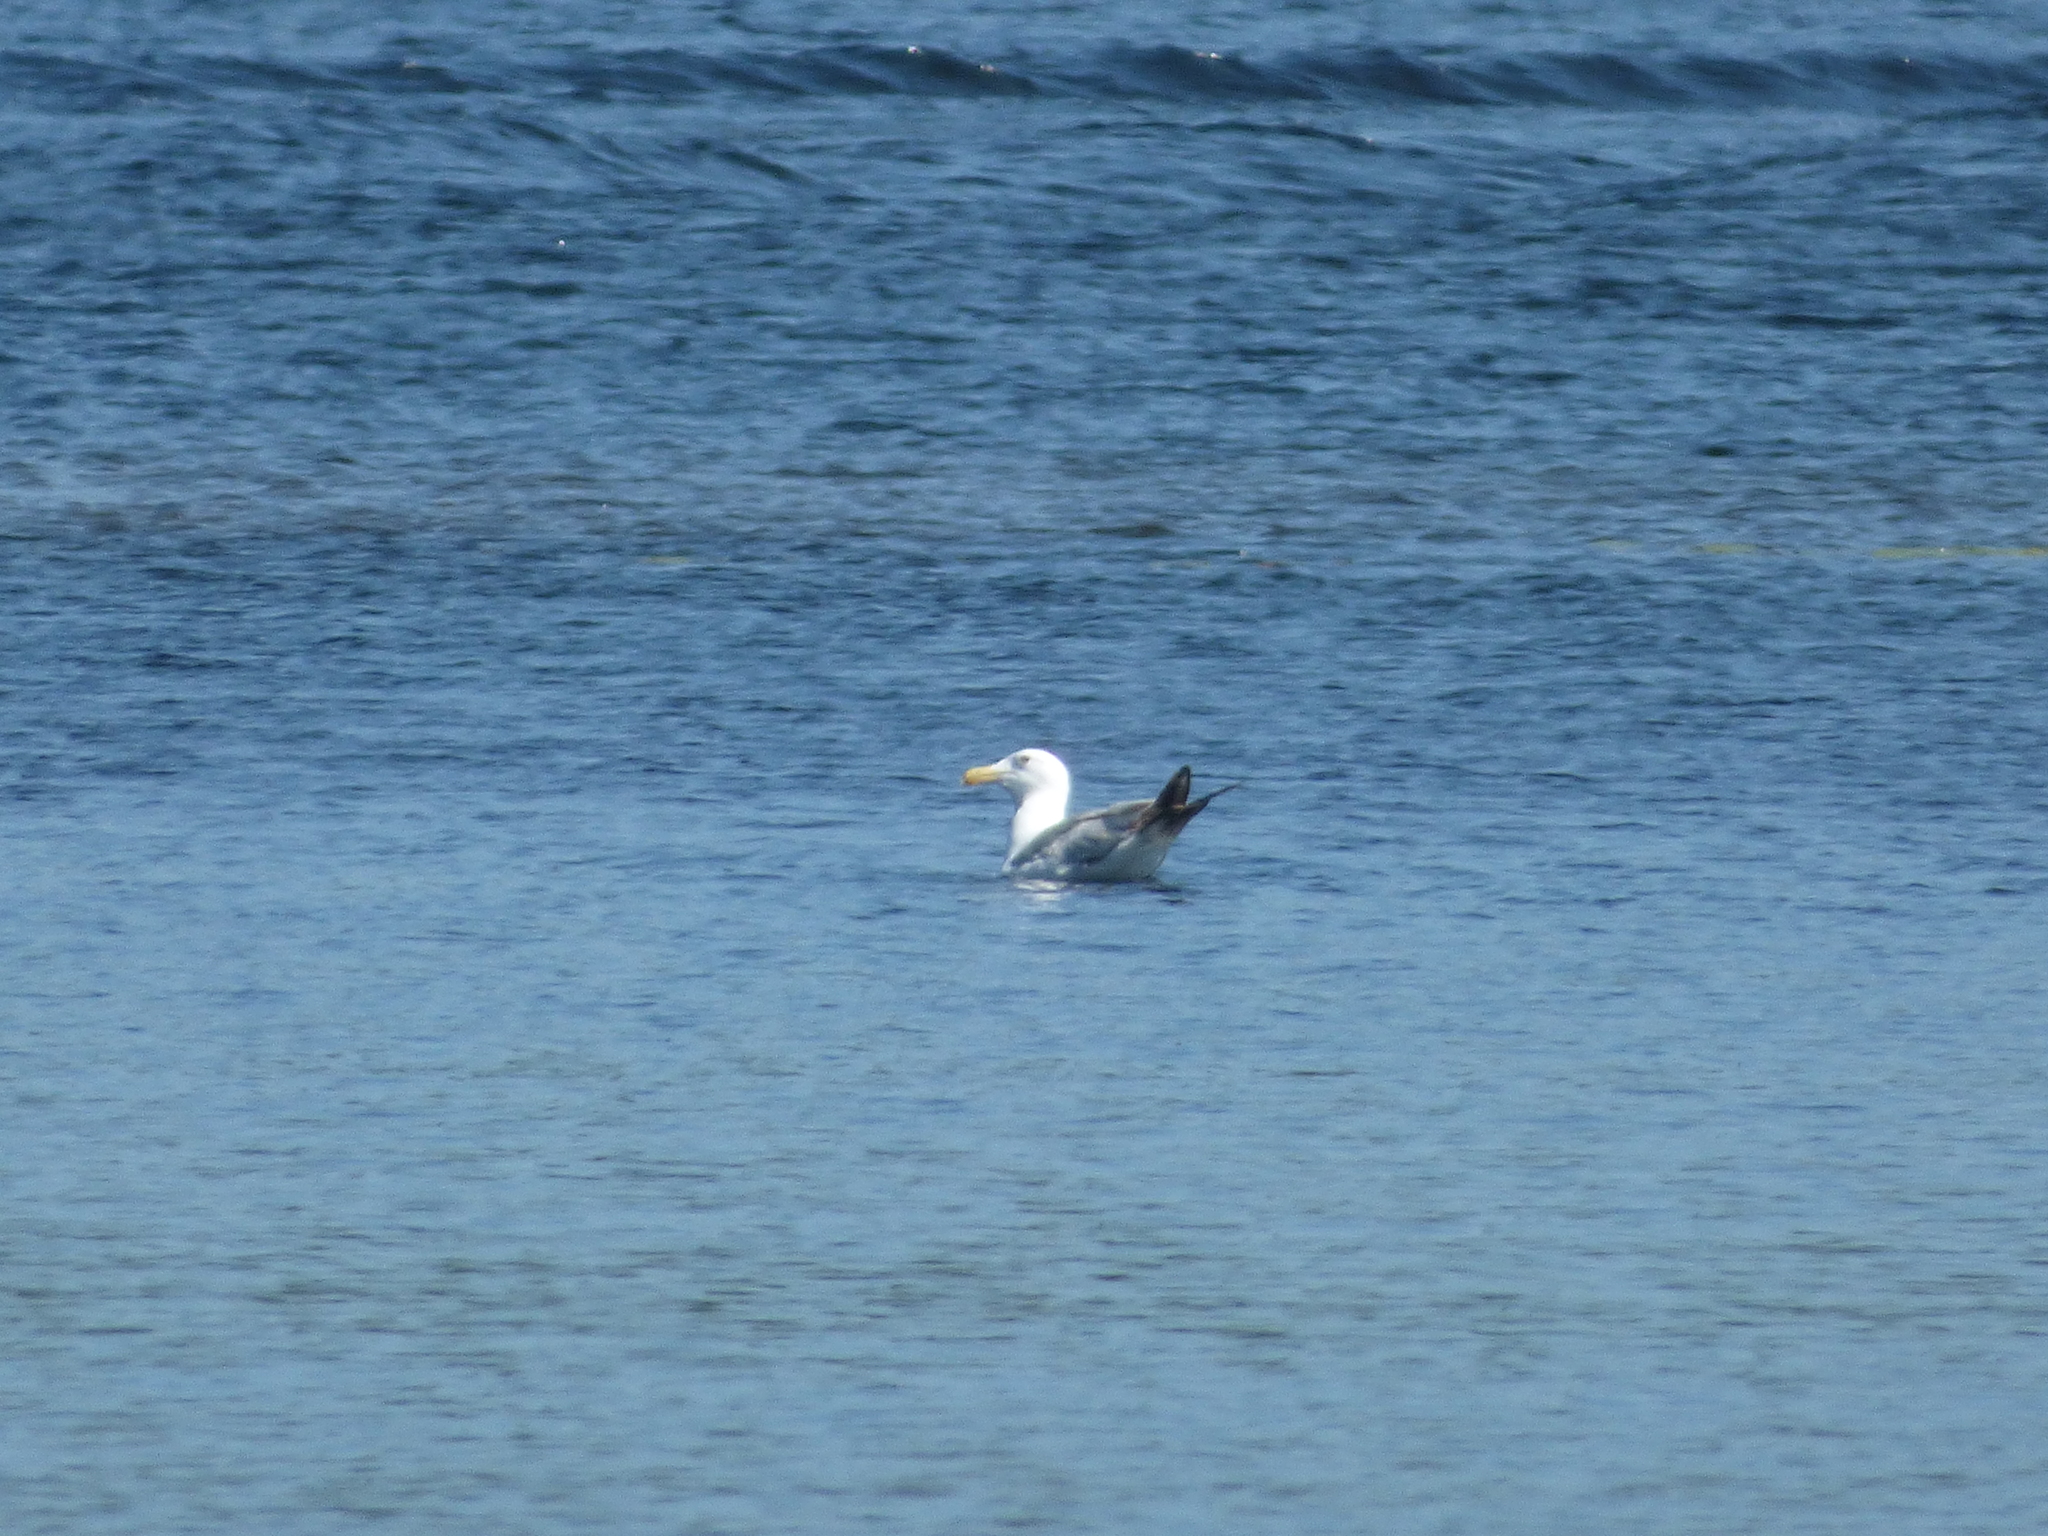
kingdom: Animalia
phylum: Chordata
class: Aves
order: Charadriiformes
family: Laridae
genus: Larus
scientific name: Larus smithsonianus
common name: American herring gull
